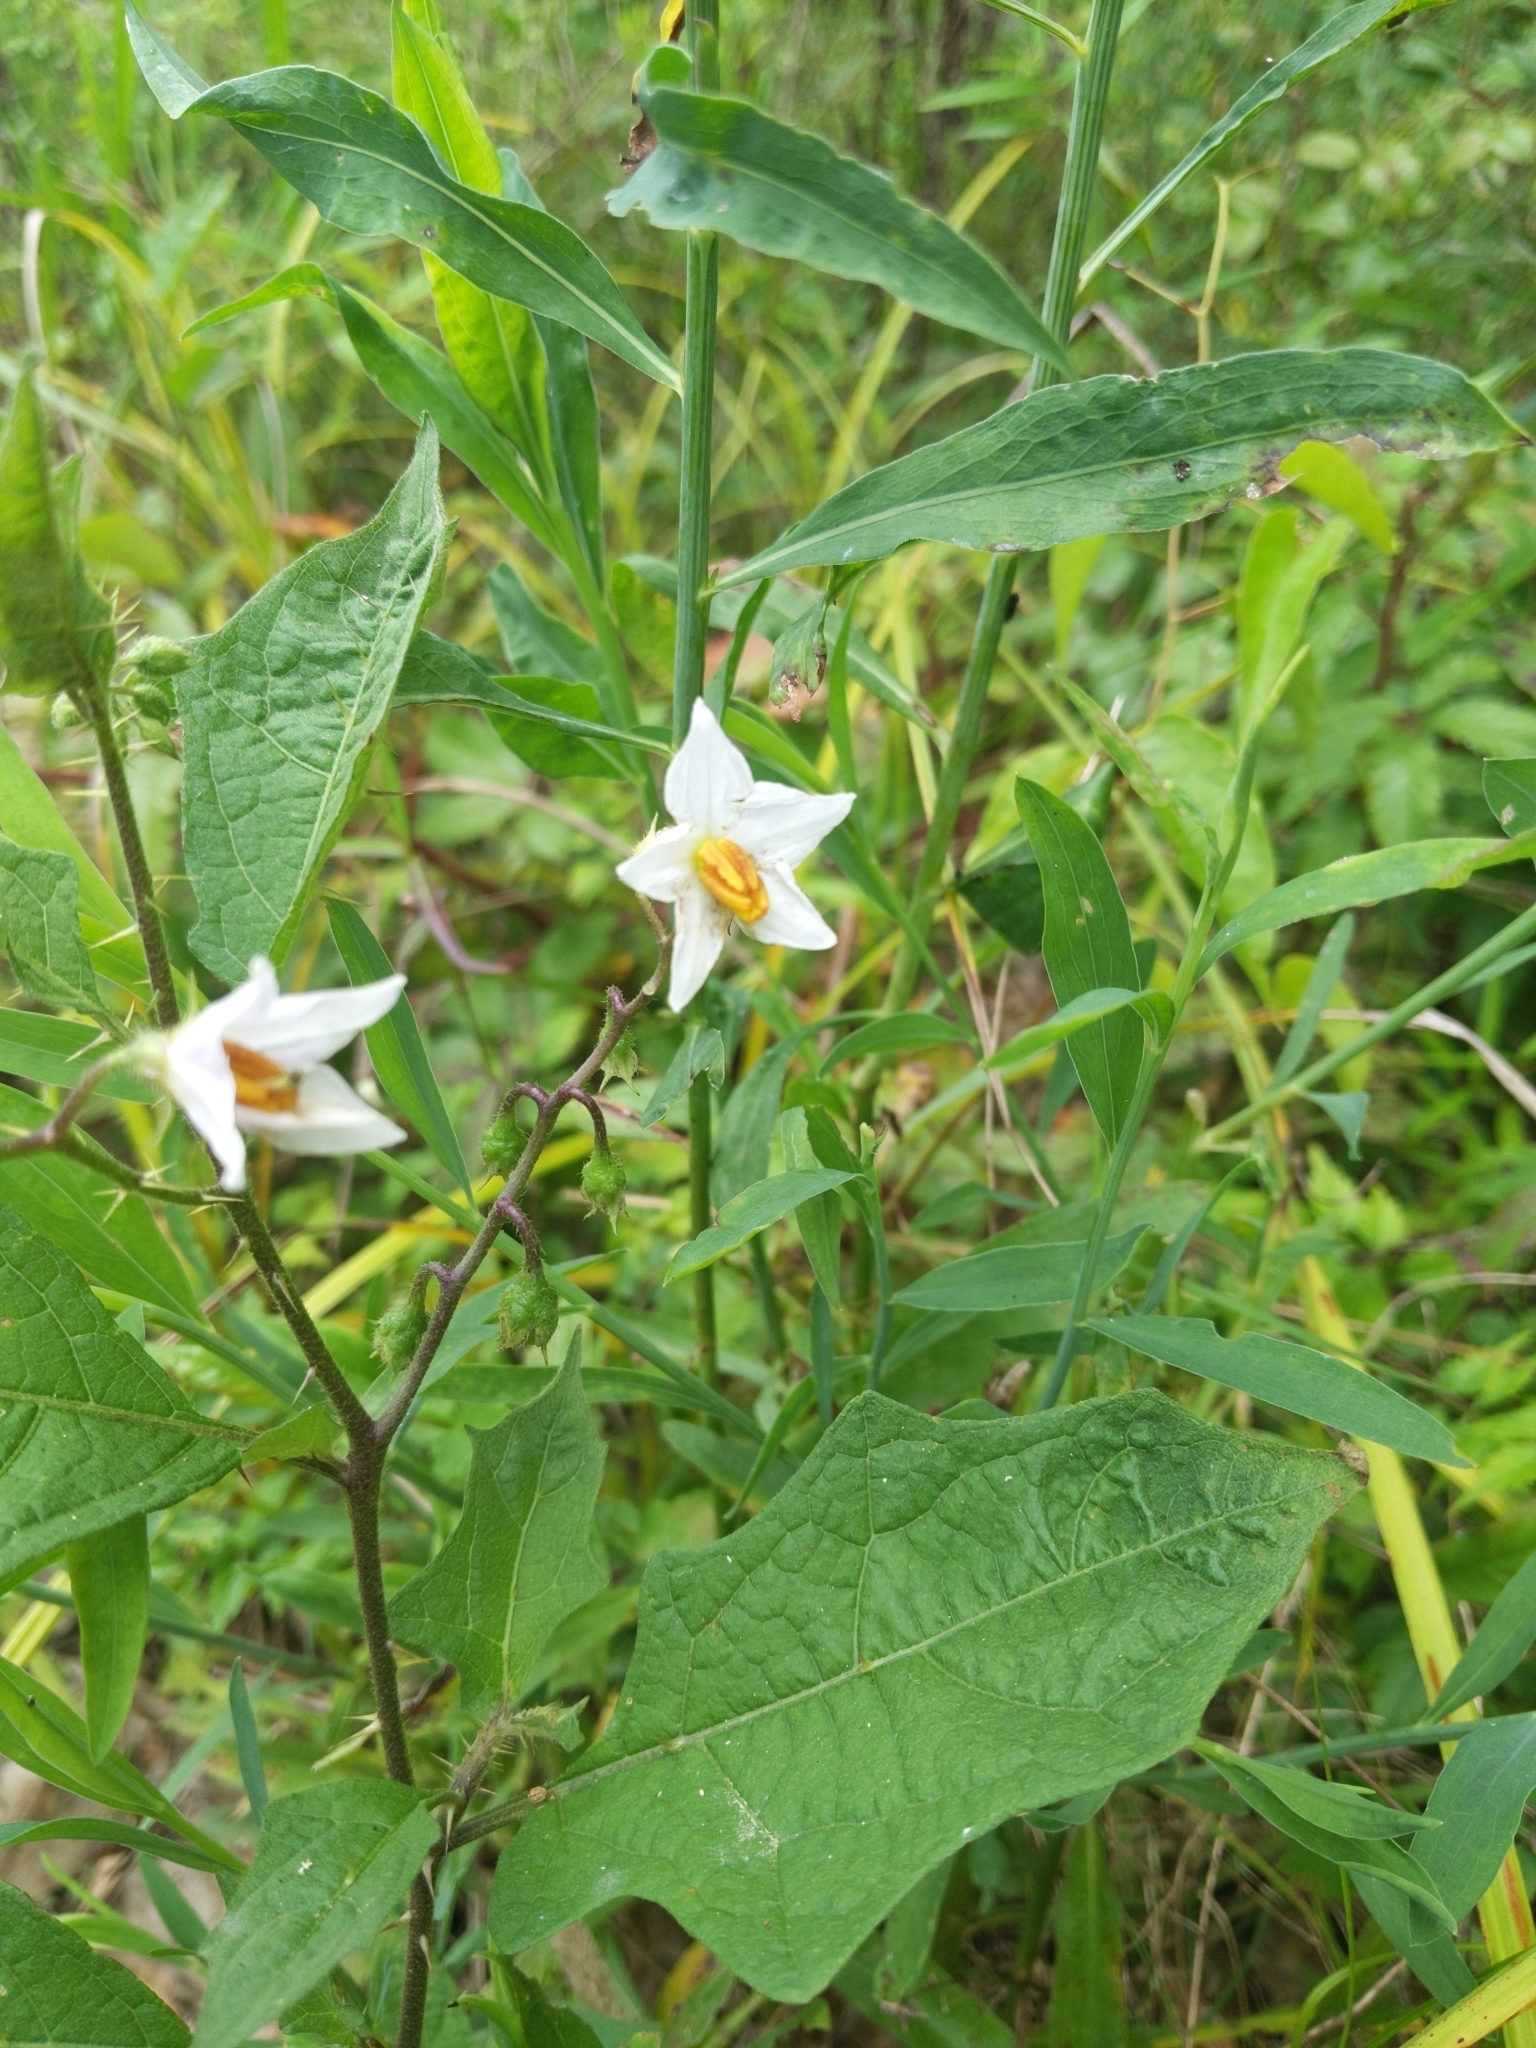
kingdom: Plantae
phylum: Tracheophyta
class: Magnoliopsida
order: Solanales
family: Solanaceae
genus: Solanum
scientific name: Solanum carolinense
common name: Horse-nettle
